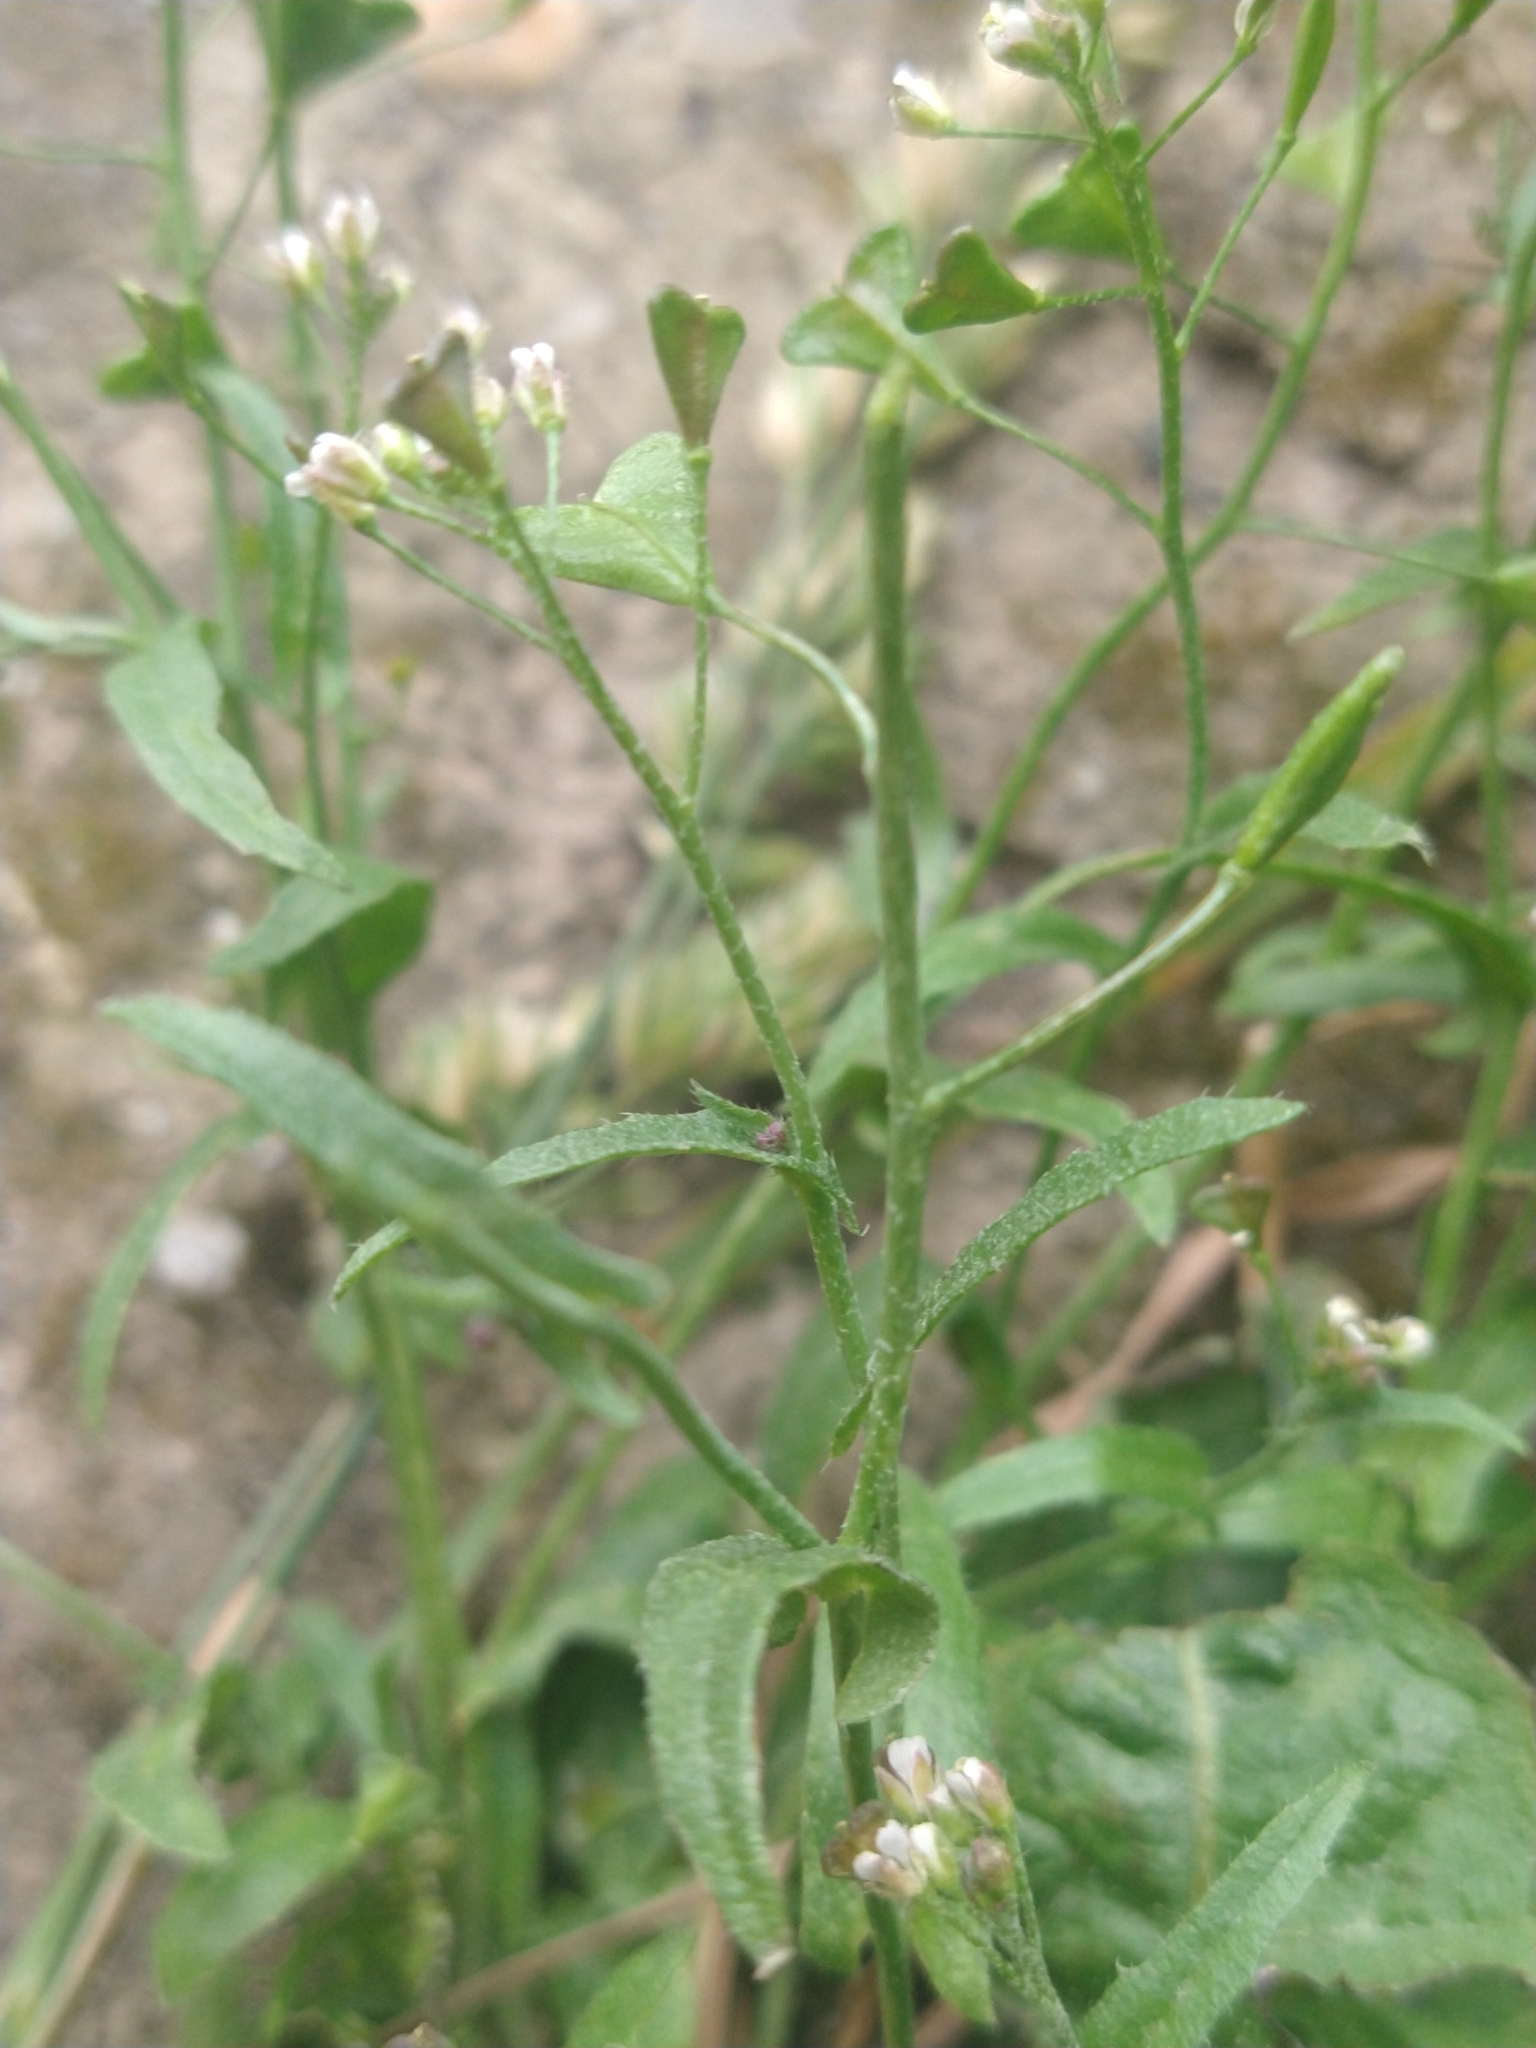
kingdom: Plantae
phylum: Tracheophyta
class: Magnoliopsida
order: Brassicales
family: Brassicaceae
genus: Capsella
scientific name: Capsella bursa-pastoris
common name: Shepherd's purse
